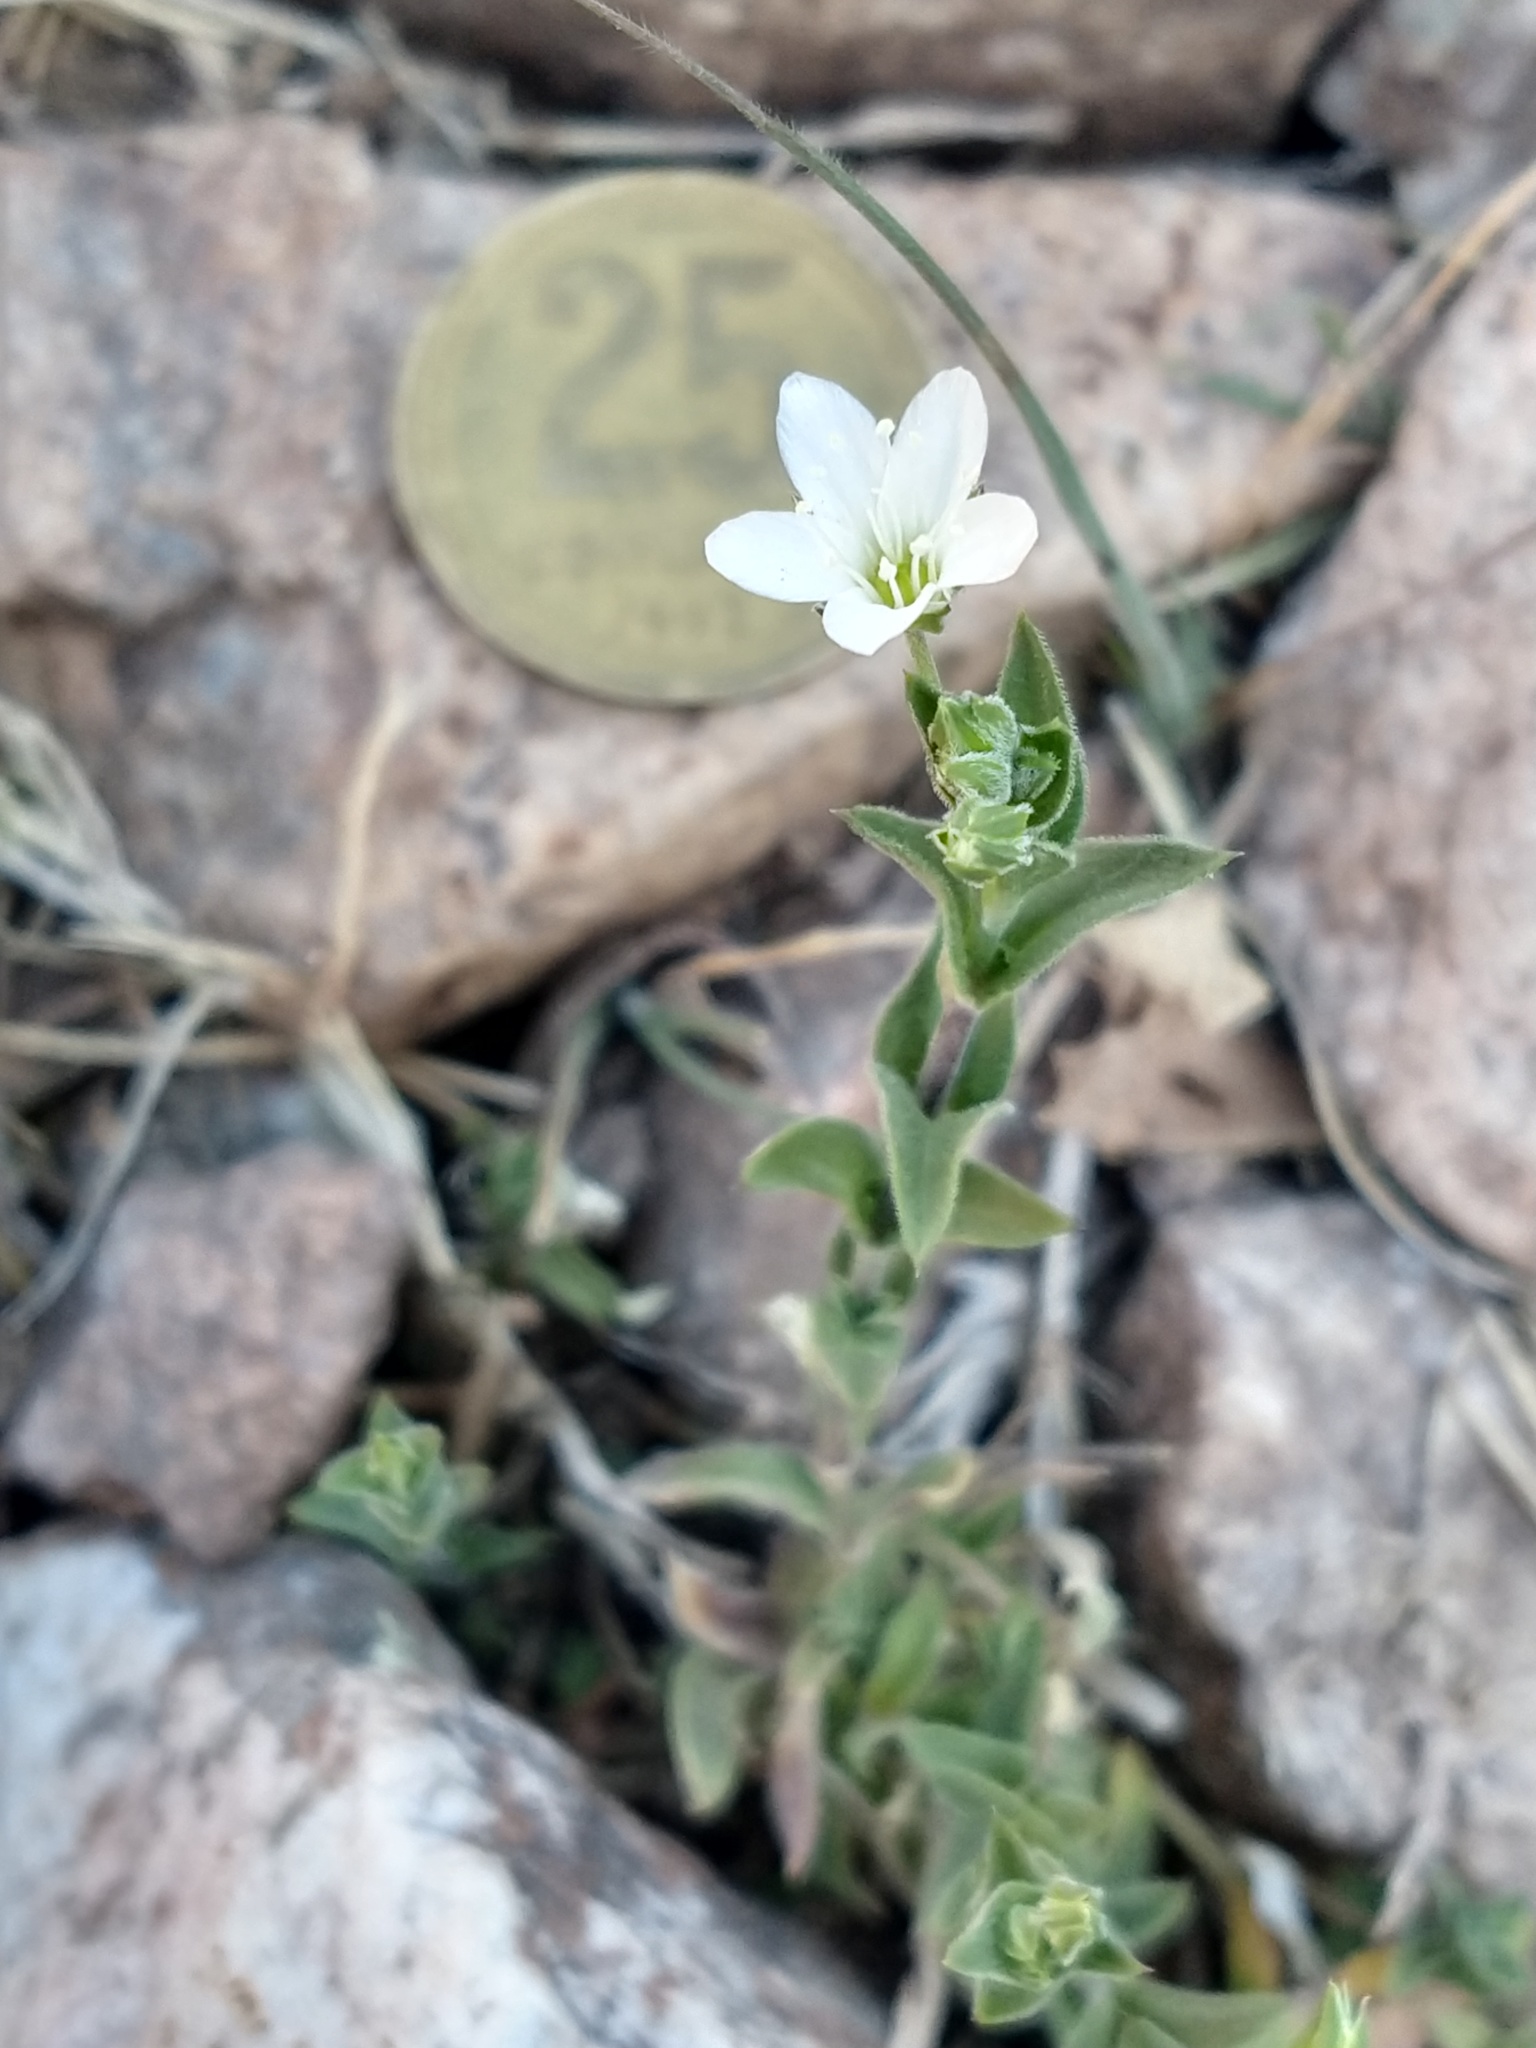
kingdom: Plantae
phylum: Tracheophyta
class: Magnoliopsida
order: Caryophyllales
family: Caryophyllaceae
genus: Arenaria
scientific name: Arenaria catamarcensis
